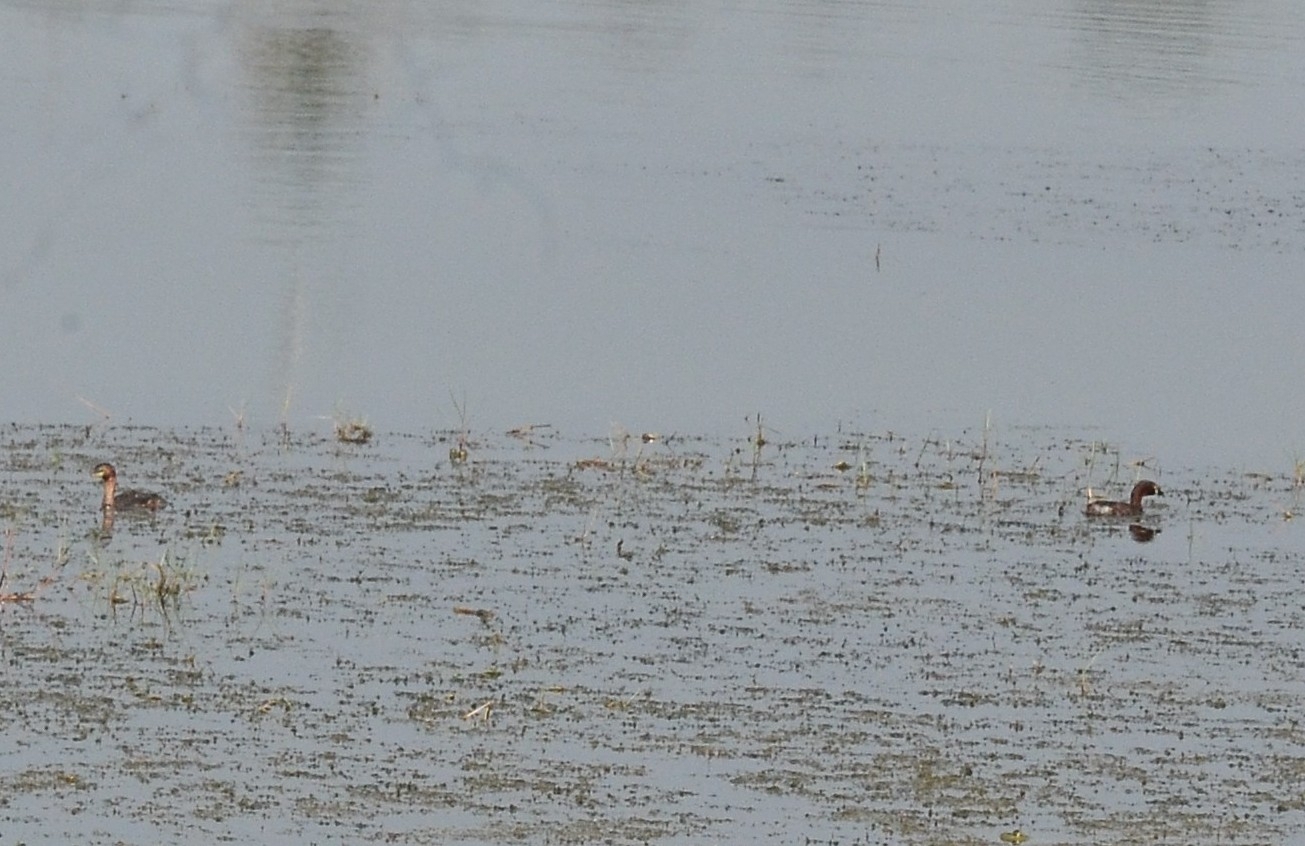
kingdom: Animalia
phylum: Chordata
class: Aves
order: Podicipediformes
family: Podicipedidae
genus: Tachybaptus
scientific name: Tachybaptus ruficollis
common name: Little grebe
